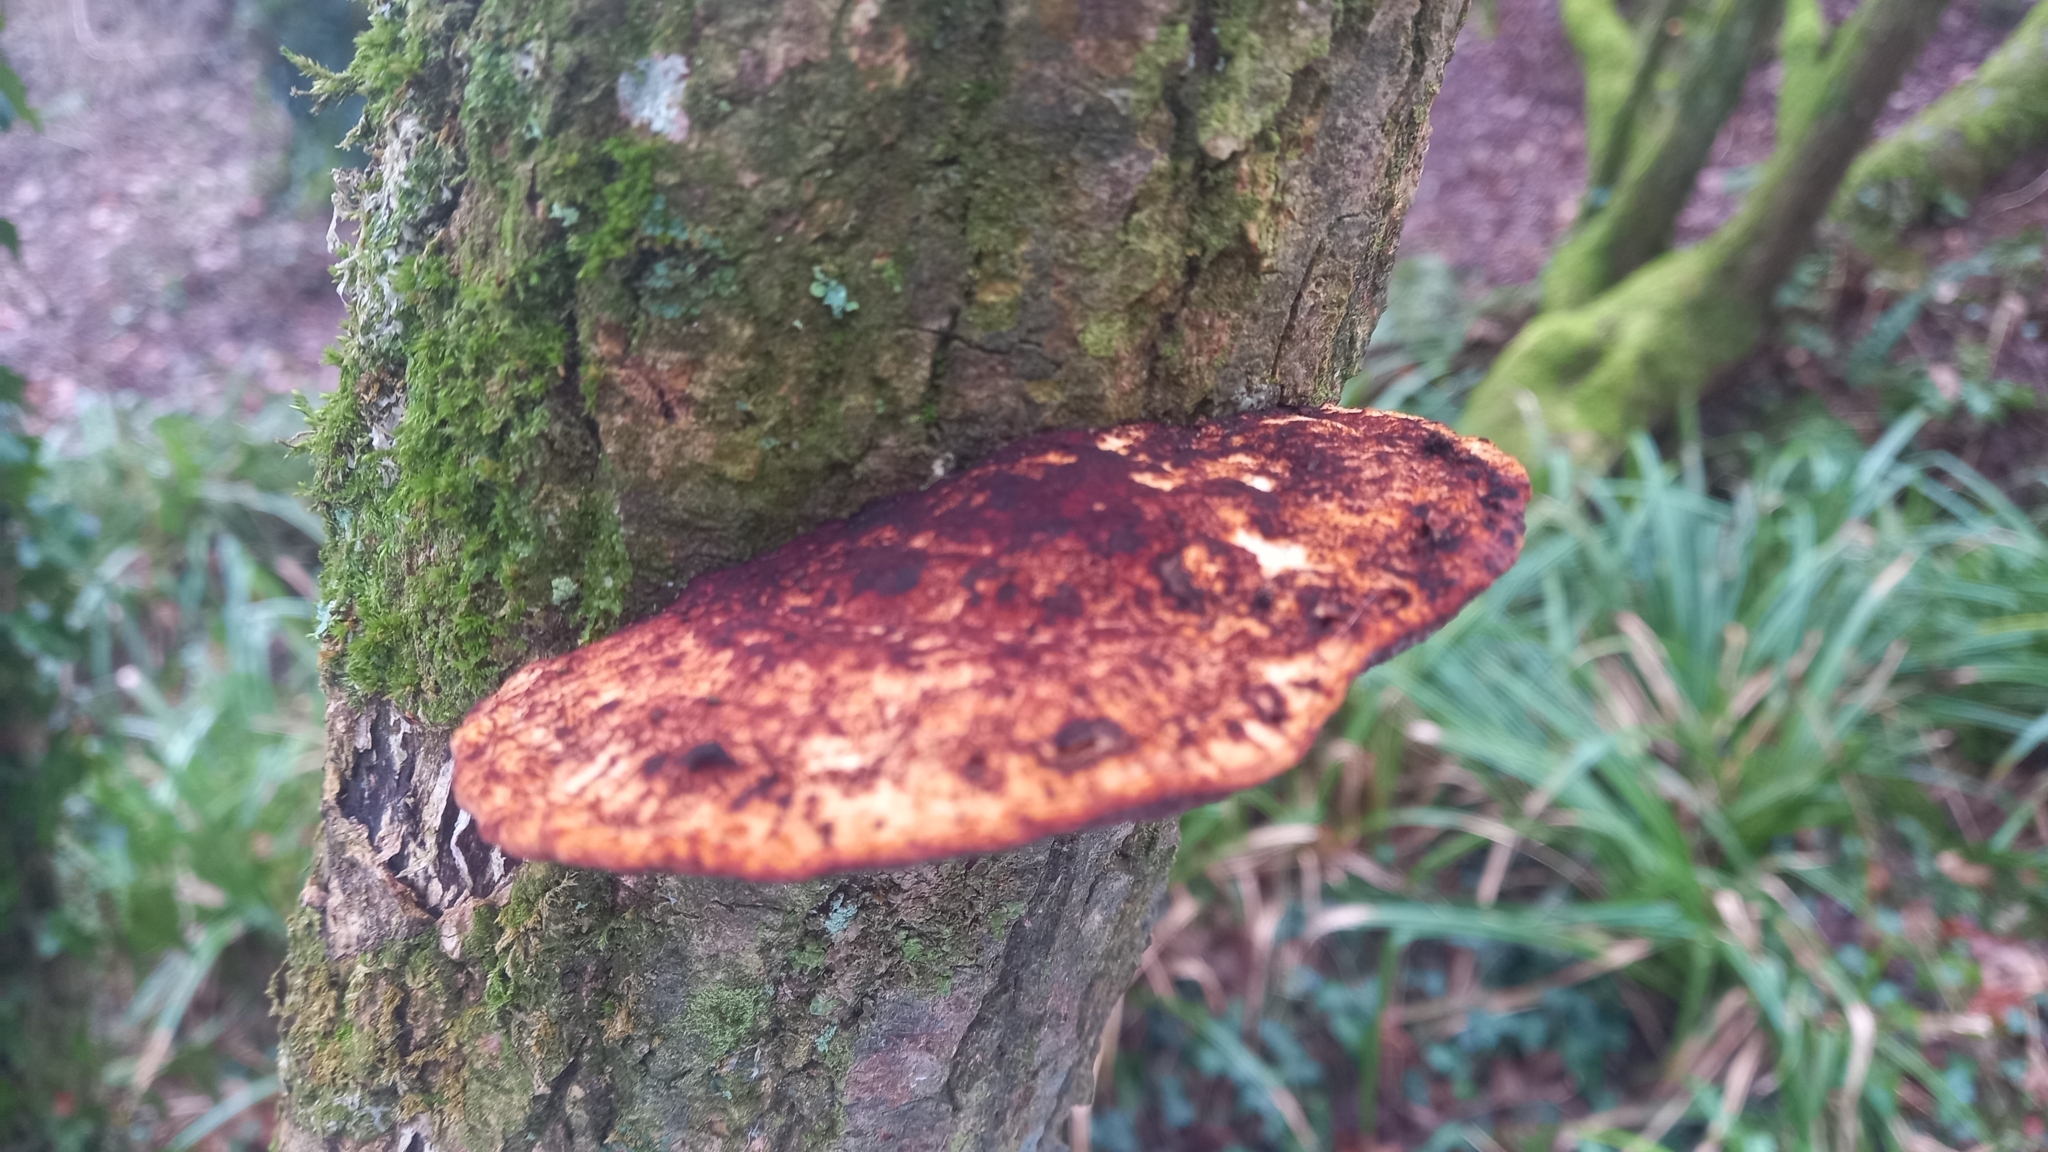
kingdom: Fungi
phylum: Basidiomycota
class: Agaricomycetes
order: Polyporales
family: Polyporaceae
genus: Daedaleopsis
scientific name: Daedaleopsis confragosa
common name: Blushing bracket
